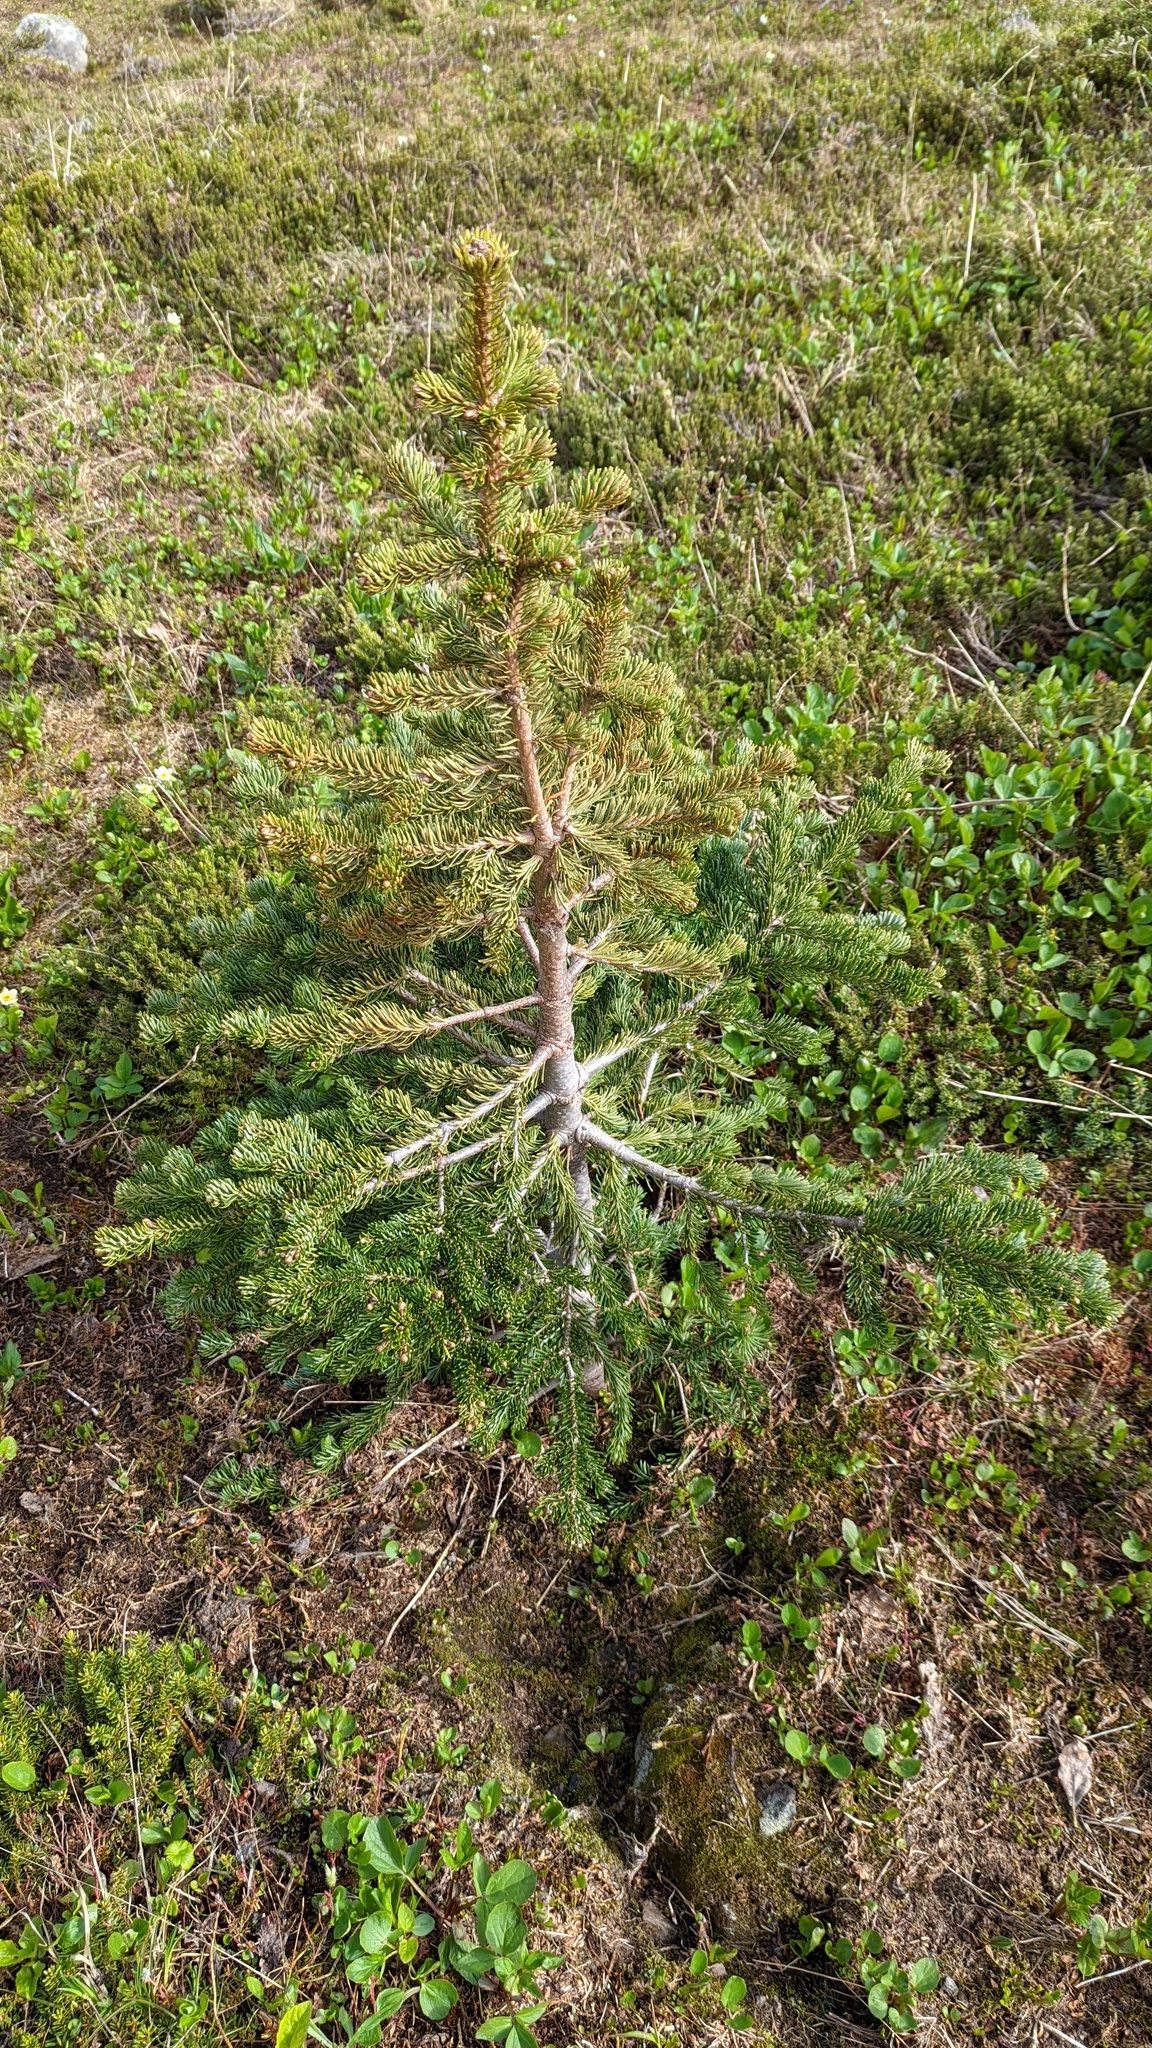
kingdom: Plantae
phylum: Tracheophyta
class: Pinopsida
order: Pinales
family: Pinaceae
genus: Abies
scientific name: Abies lasiocarpa
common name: Subalpine fir
